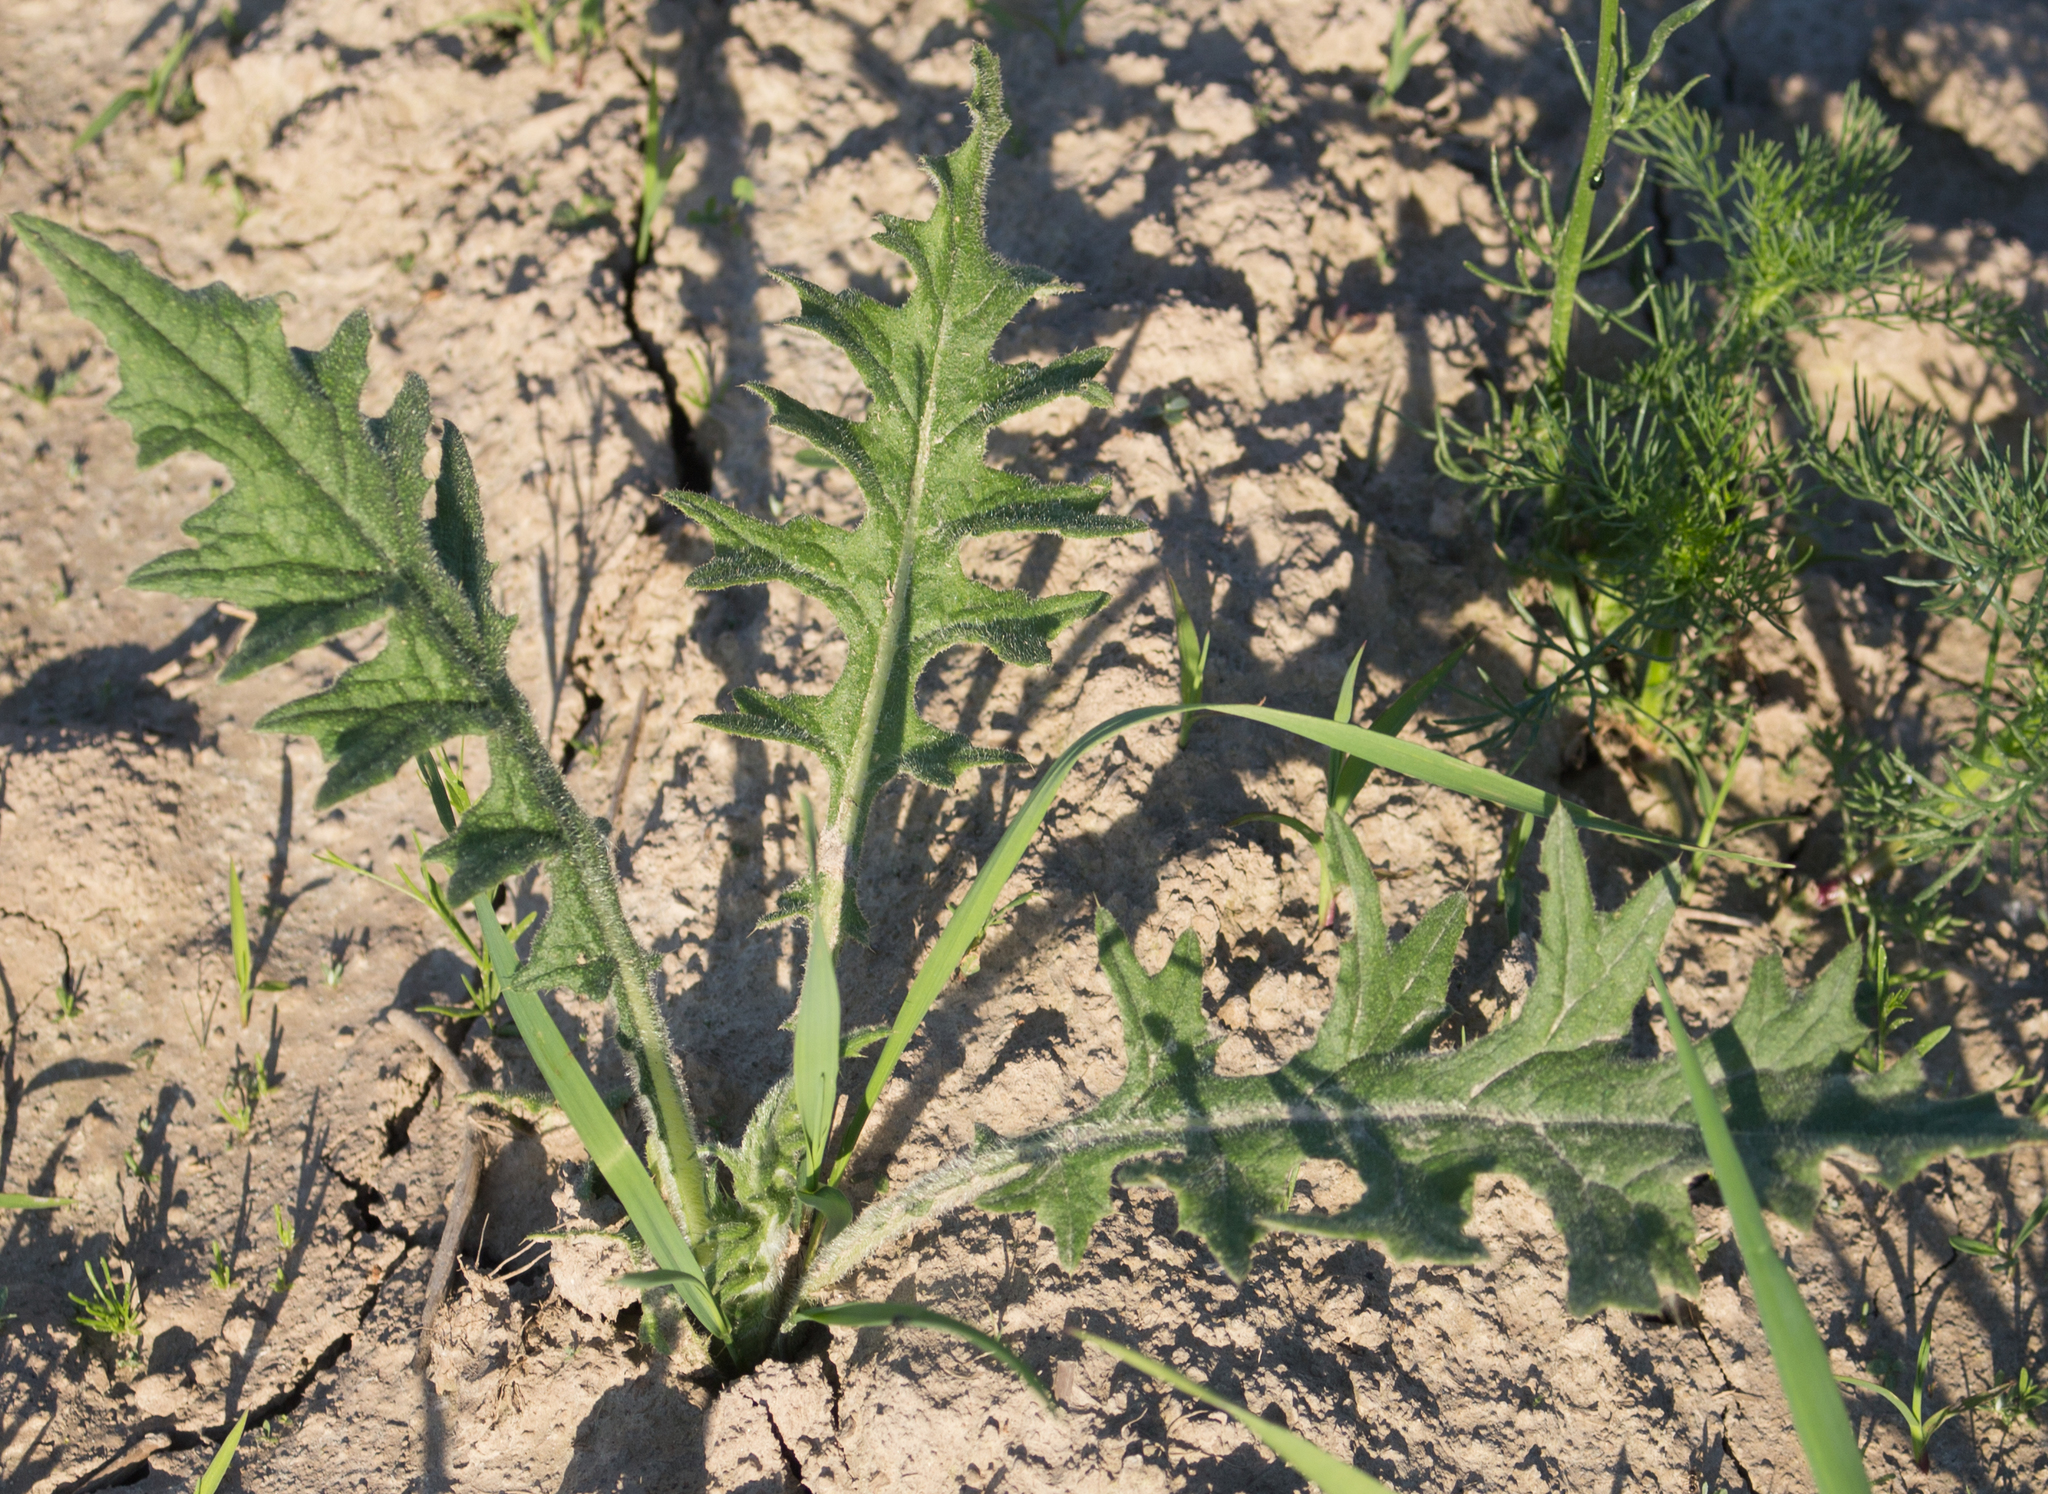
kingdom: Plantae
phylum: Tracheophyta
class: Magnoliopsida
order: Asterales
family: Asteraceae
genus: Cirsium
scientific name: Cirsium vulgare
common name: Bull thistle
